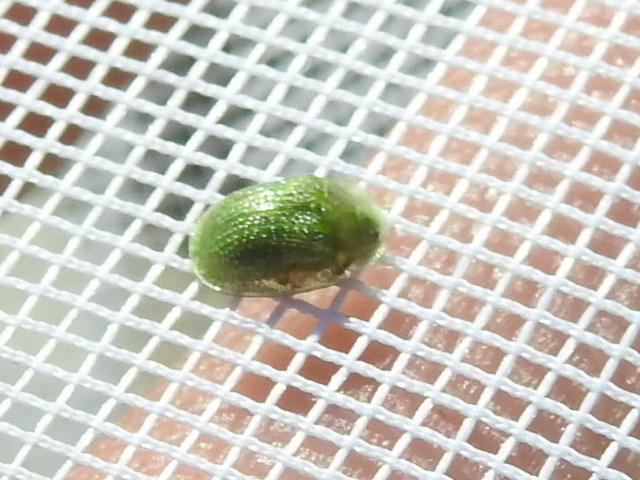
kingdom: Animalia
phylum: Arthropoda
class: Insecta
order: Coleoptera
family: Chrysomelidae
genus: Gratiana
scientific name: Gratiana pallidula
